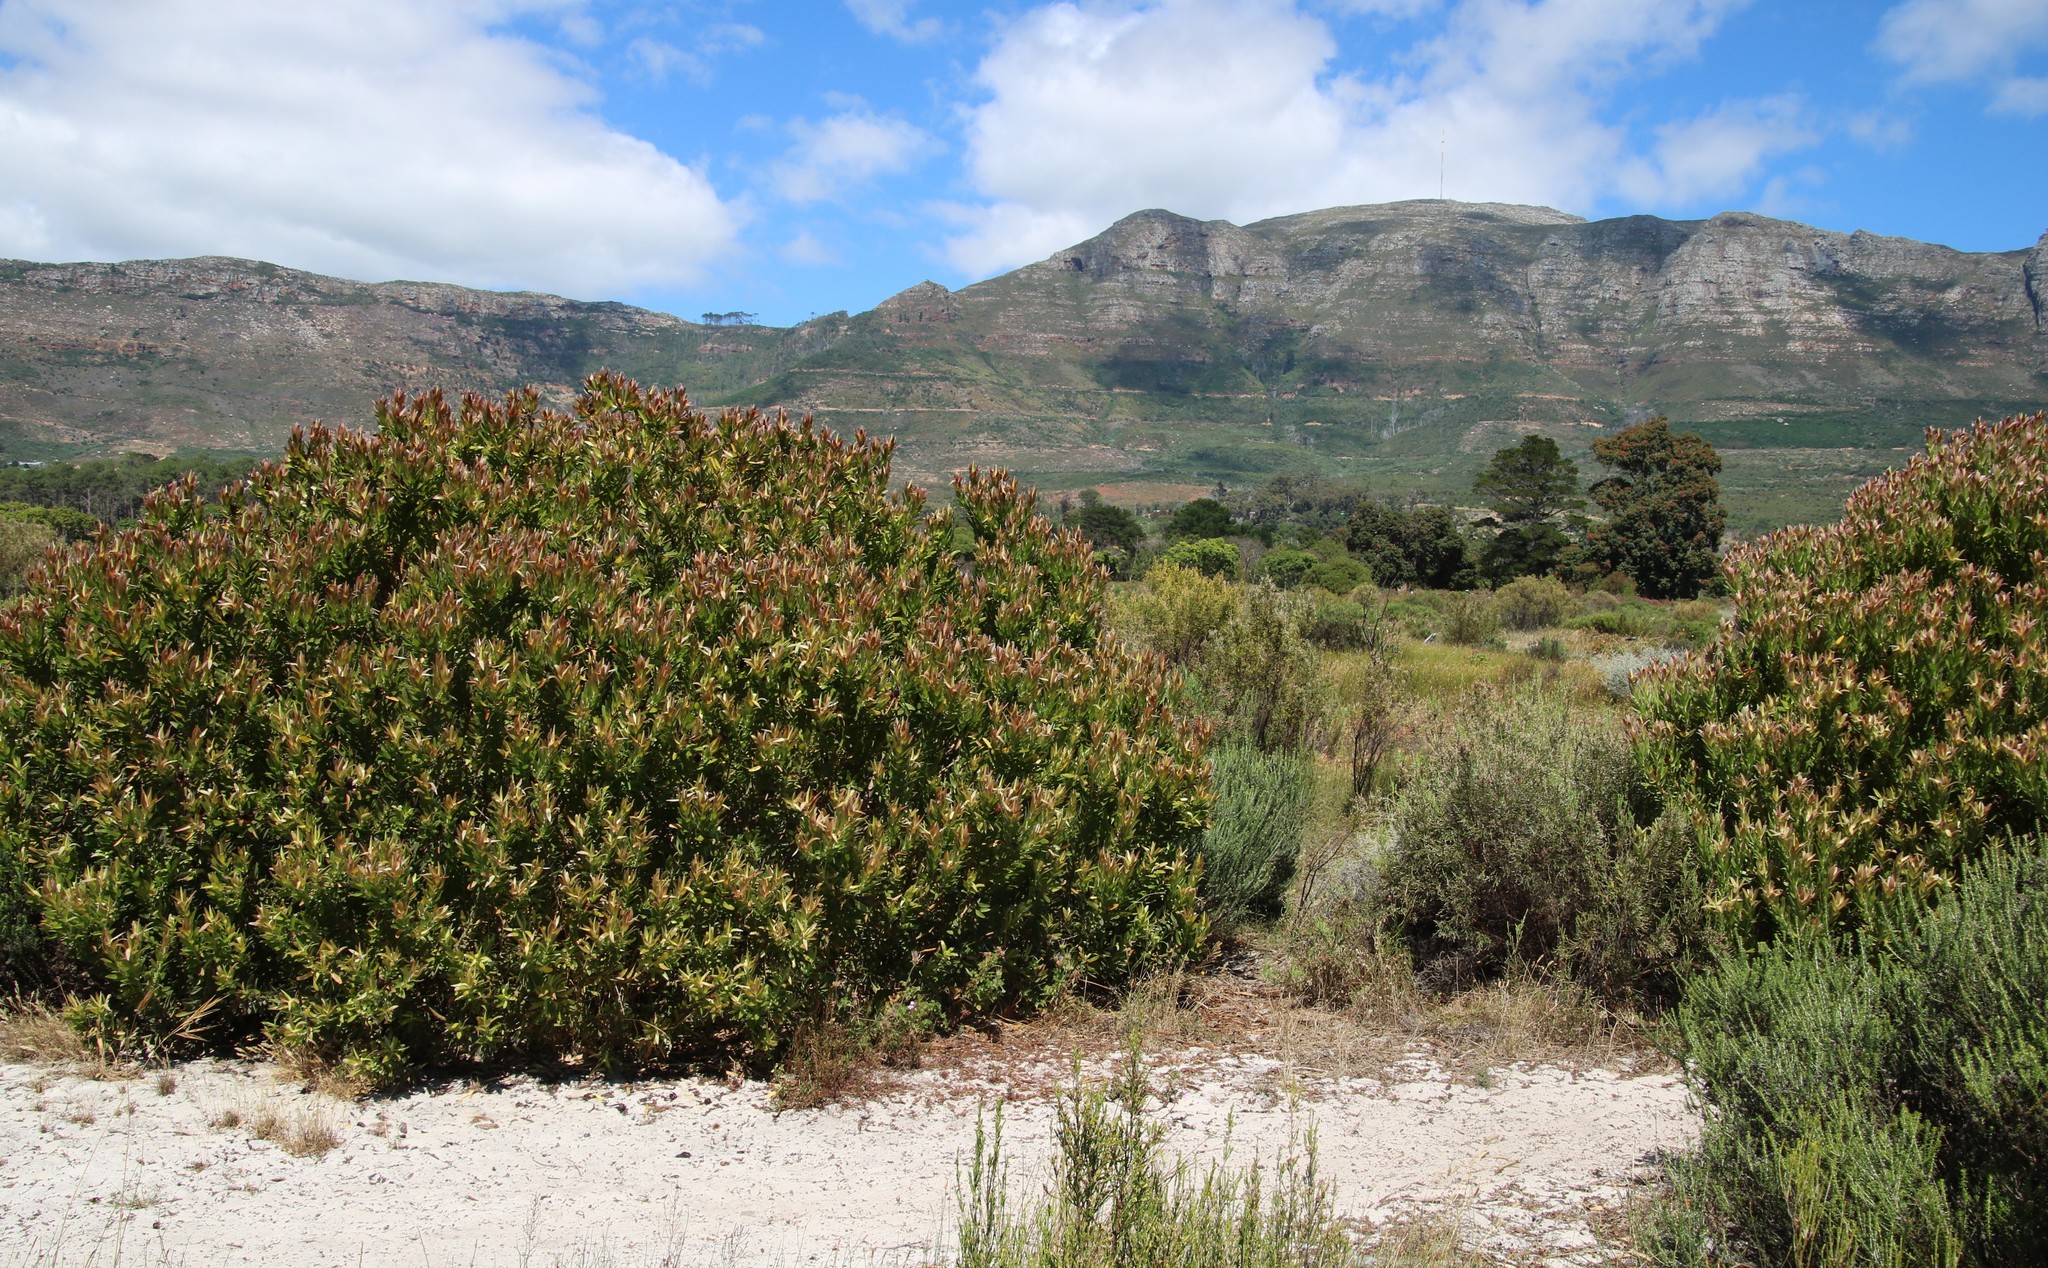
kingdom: Plantae
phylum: Tracheophyta
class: Magnoliopsida
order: Proteales
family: Proteaceae
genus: Leucadendron
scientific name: Leucadendron laureolum
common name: Golden sunshinebush
